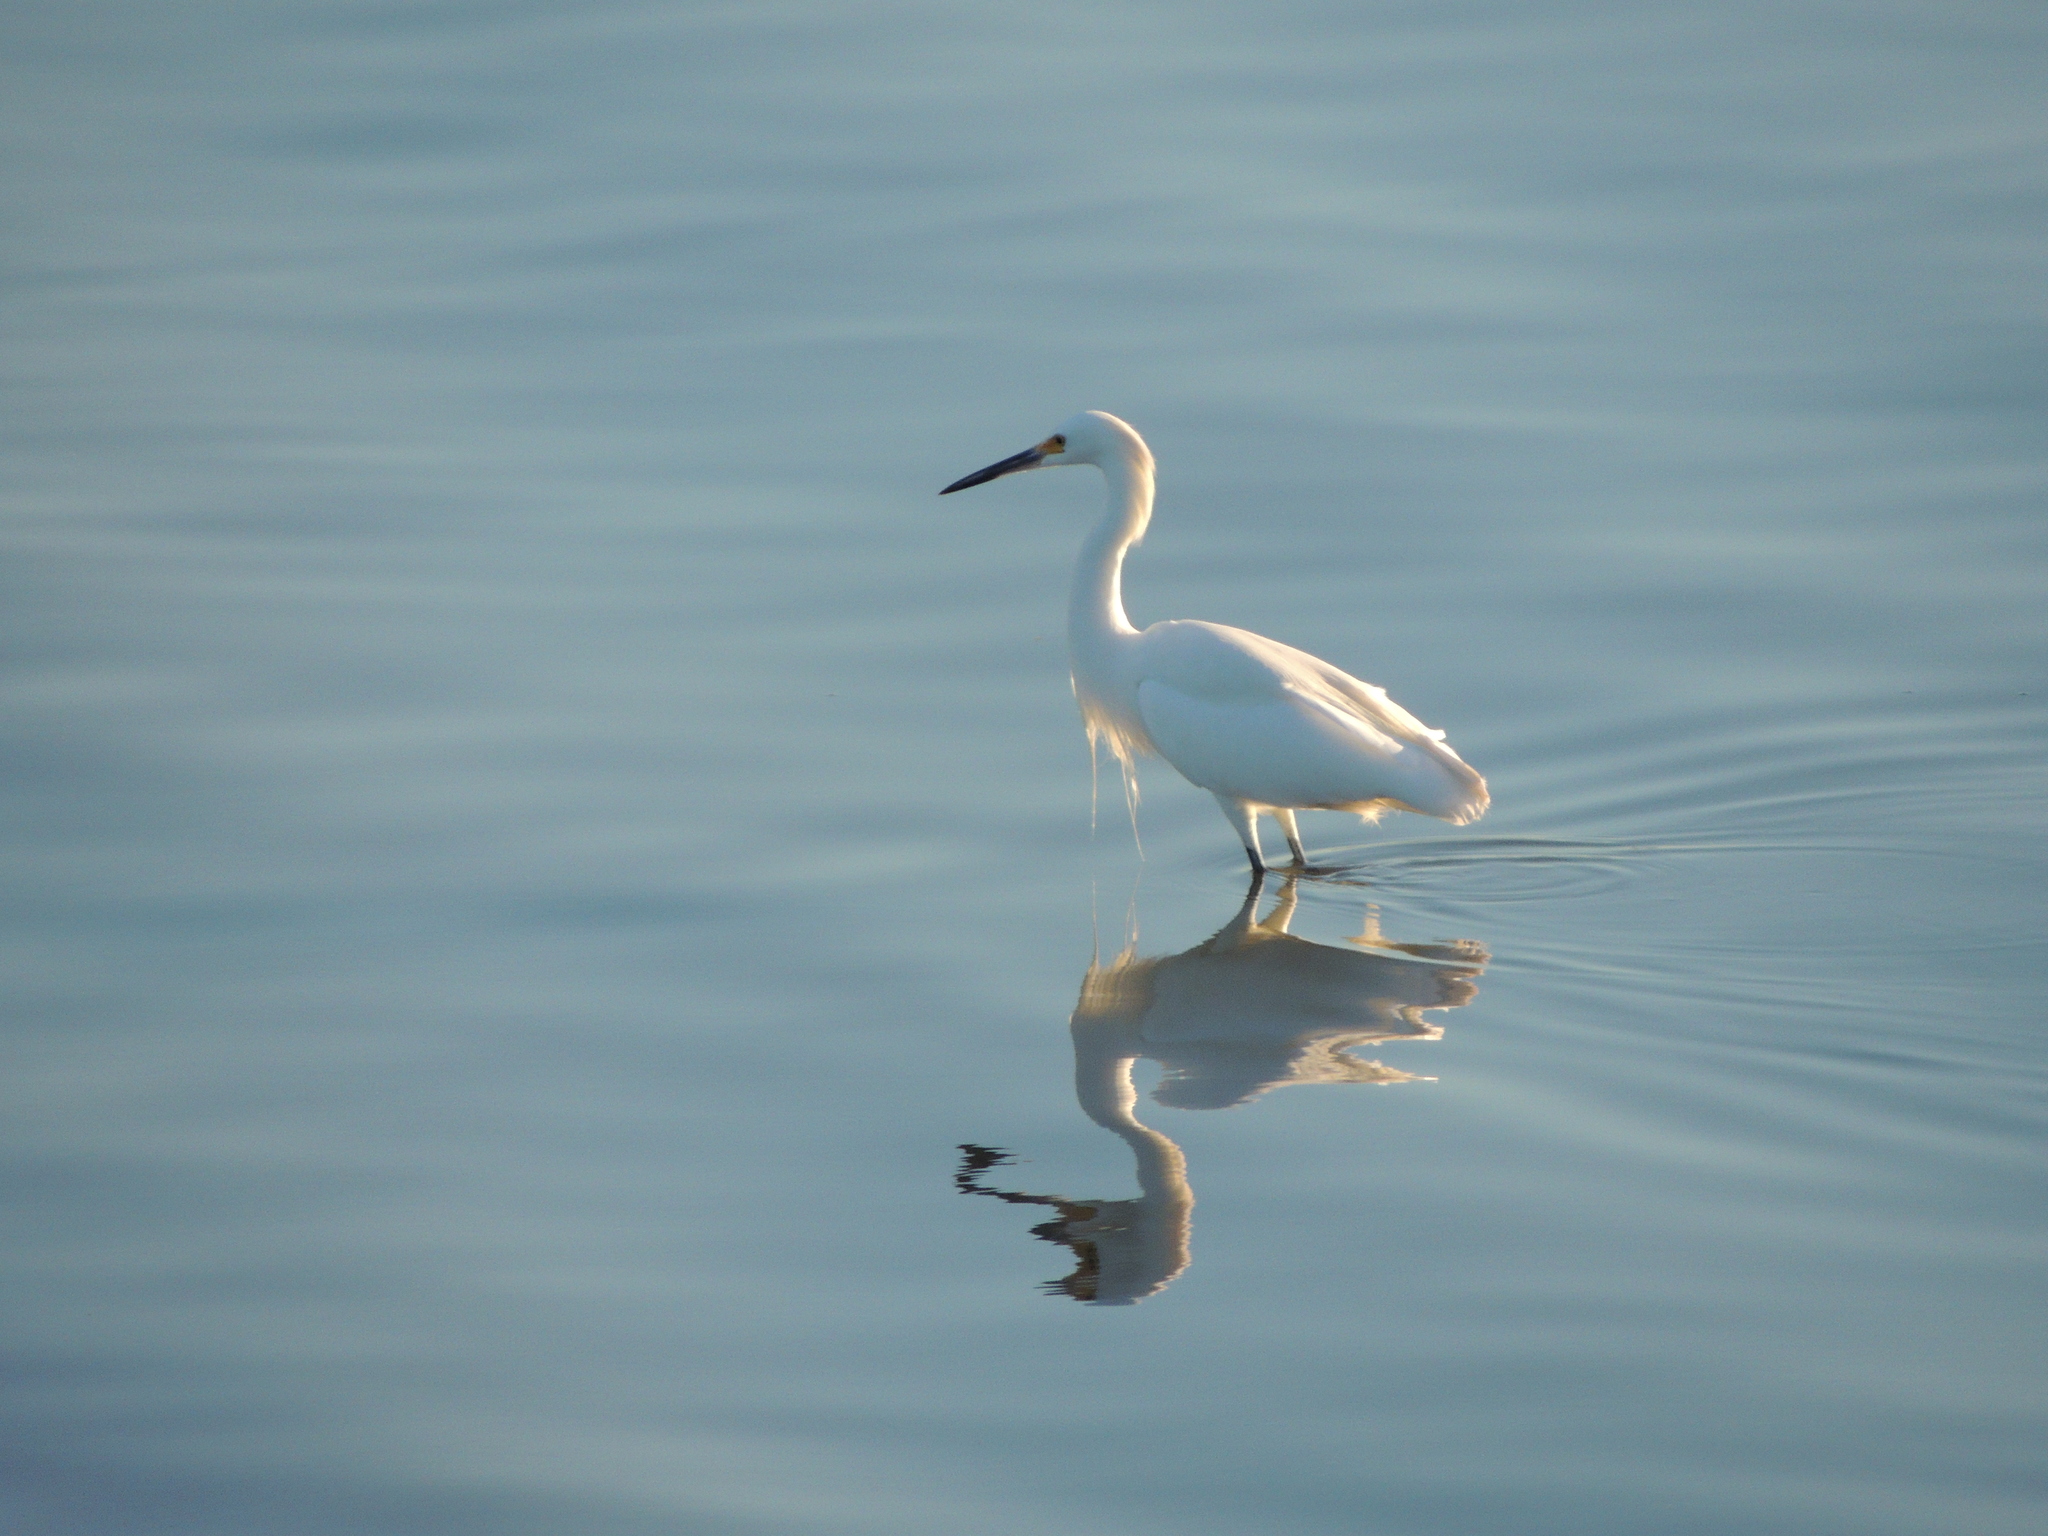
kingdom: Animalia
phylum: Chordata
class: Aves
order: Pelecaniformes
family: Ardeidae
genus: Egretta
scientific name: Egretta thula
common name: Snowy egret
